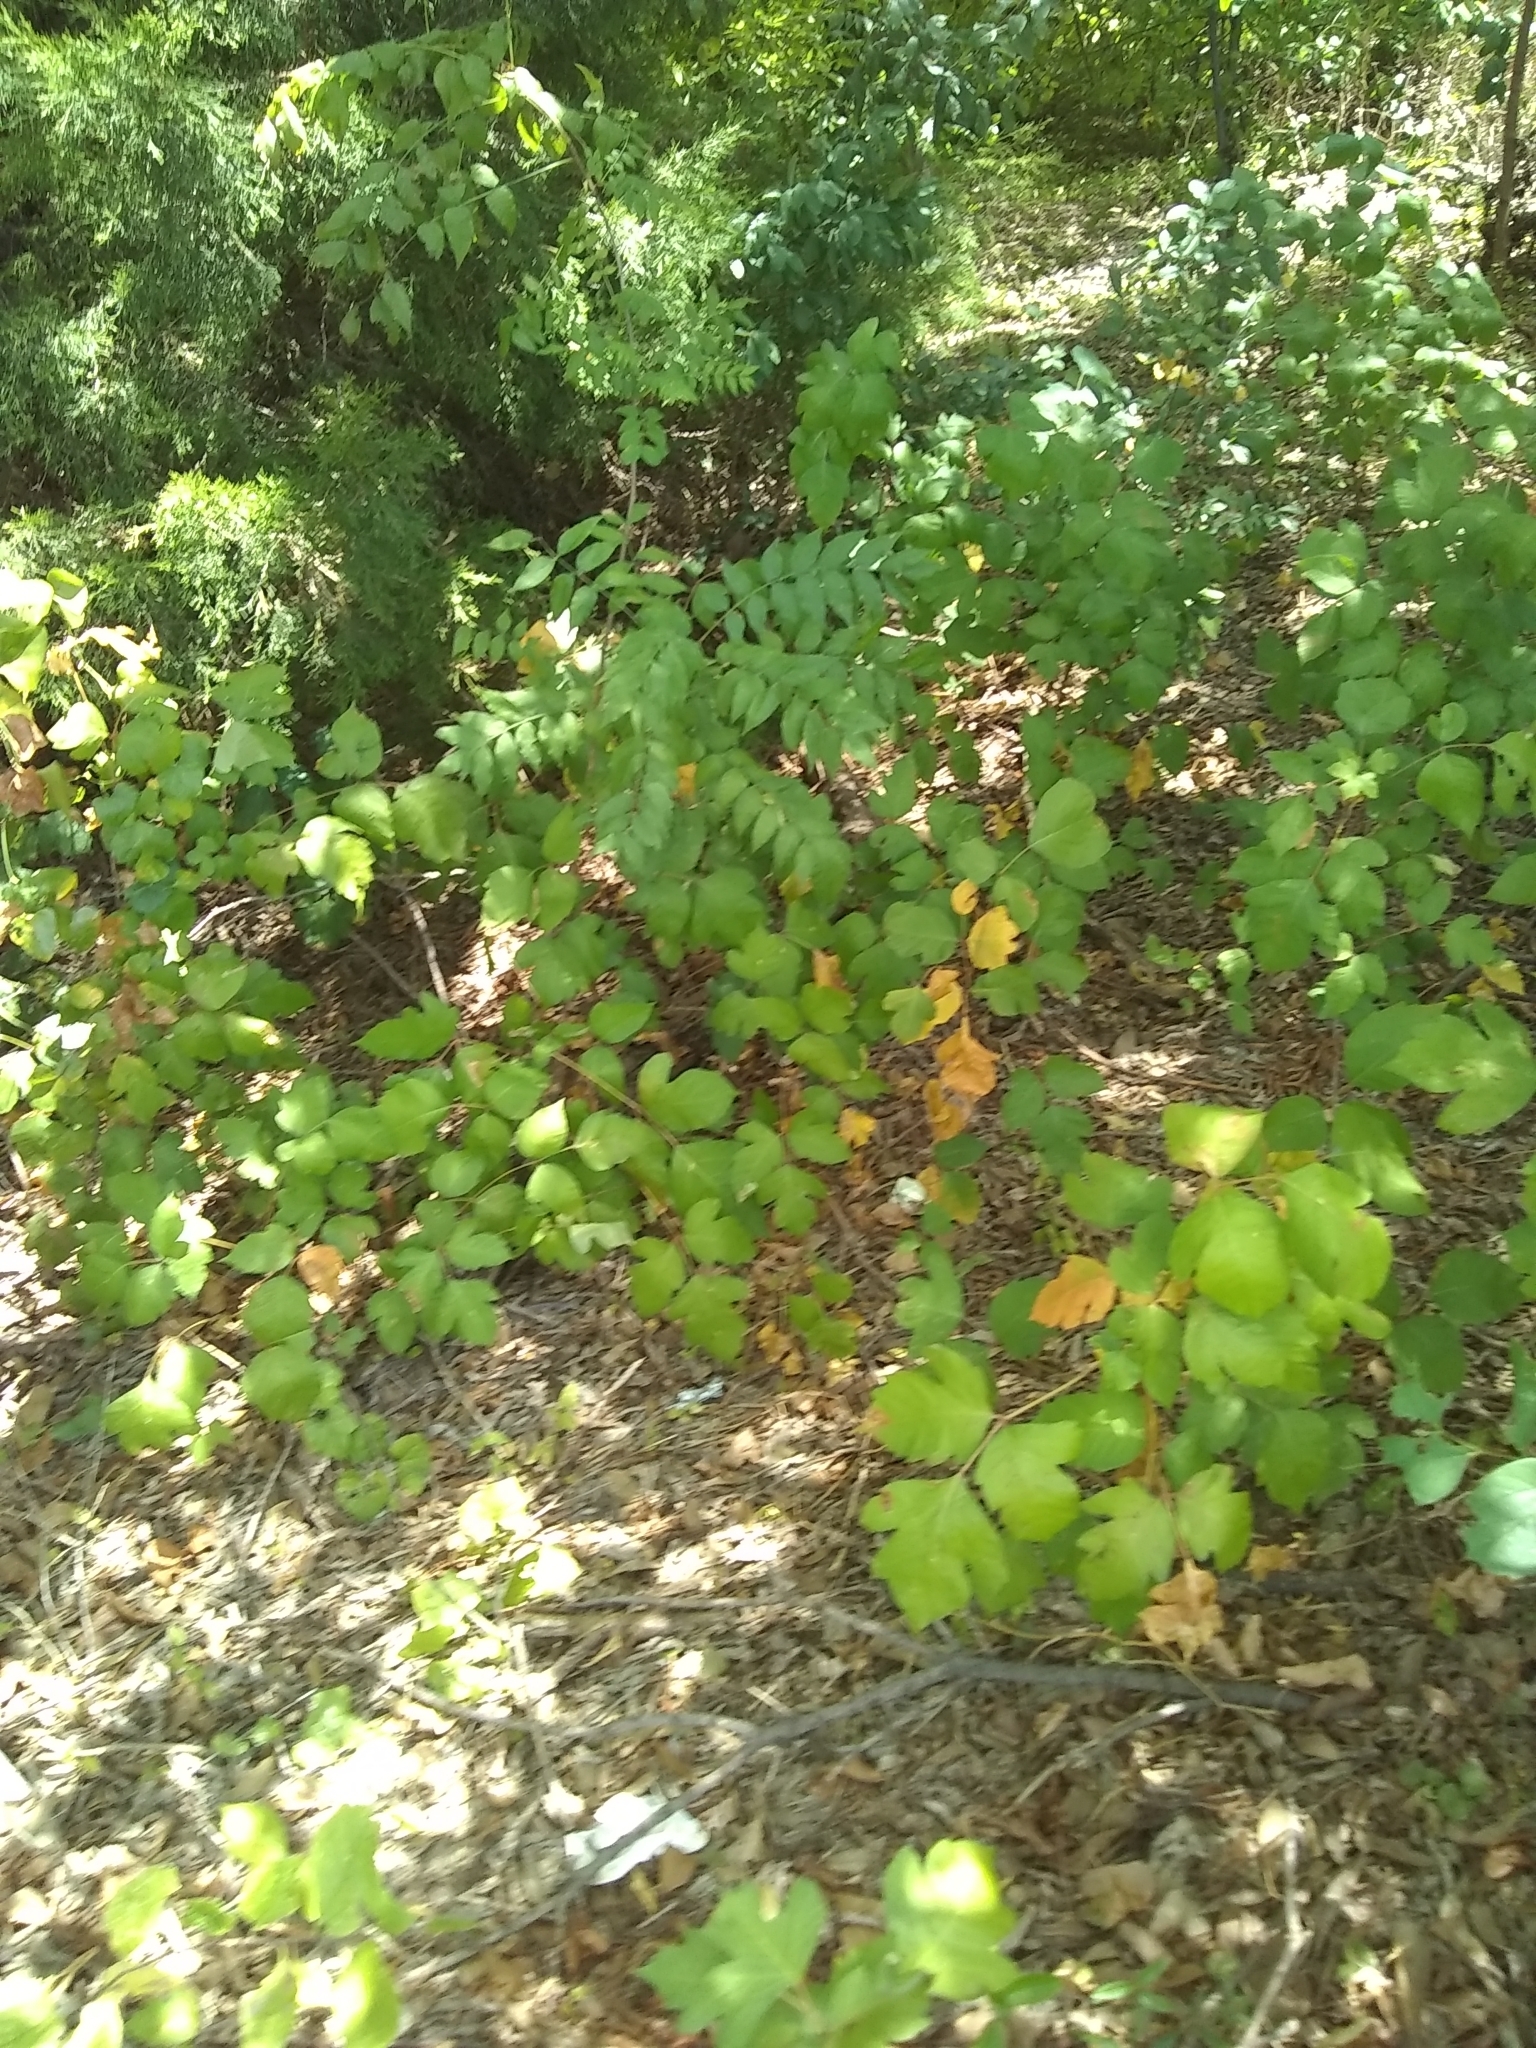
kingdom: Plantae
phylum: Tracheophyta
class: Magnoliopsida
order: Sapindales
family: Anacardiaceae
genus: Toxicodendron
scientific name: Toxicodendron radicans
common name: Poison ivy
